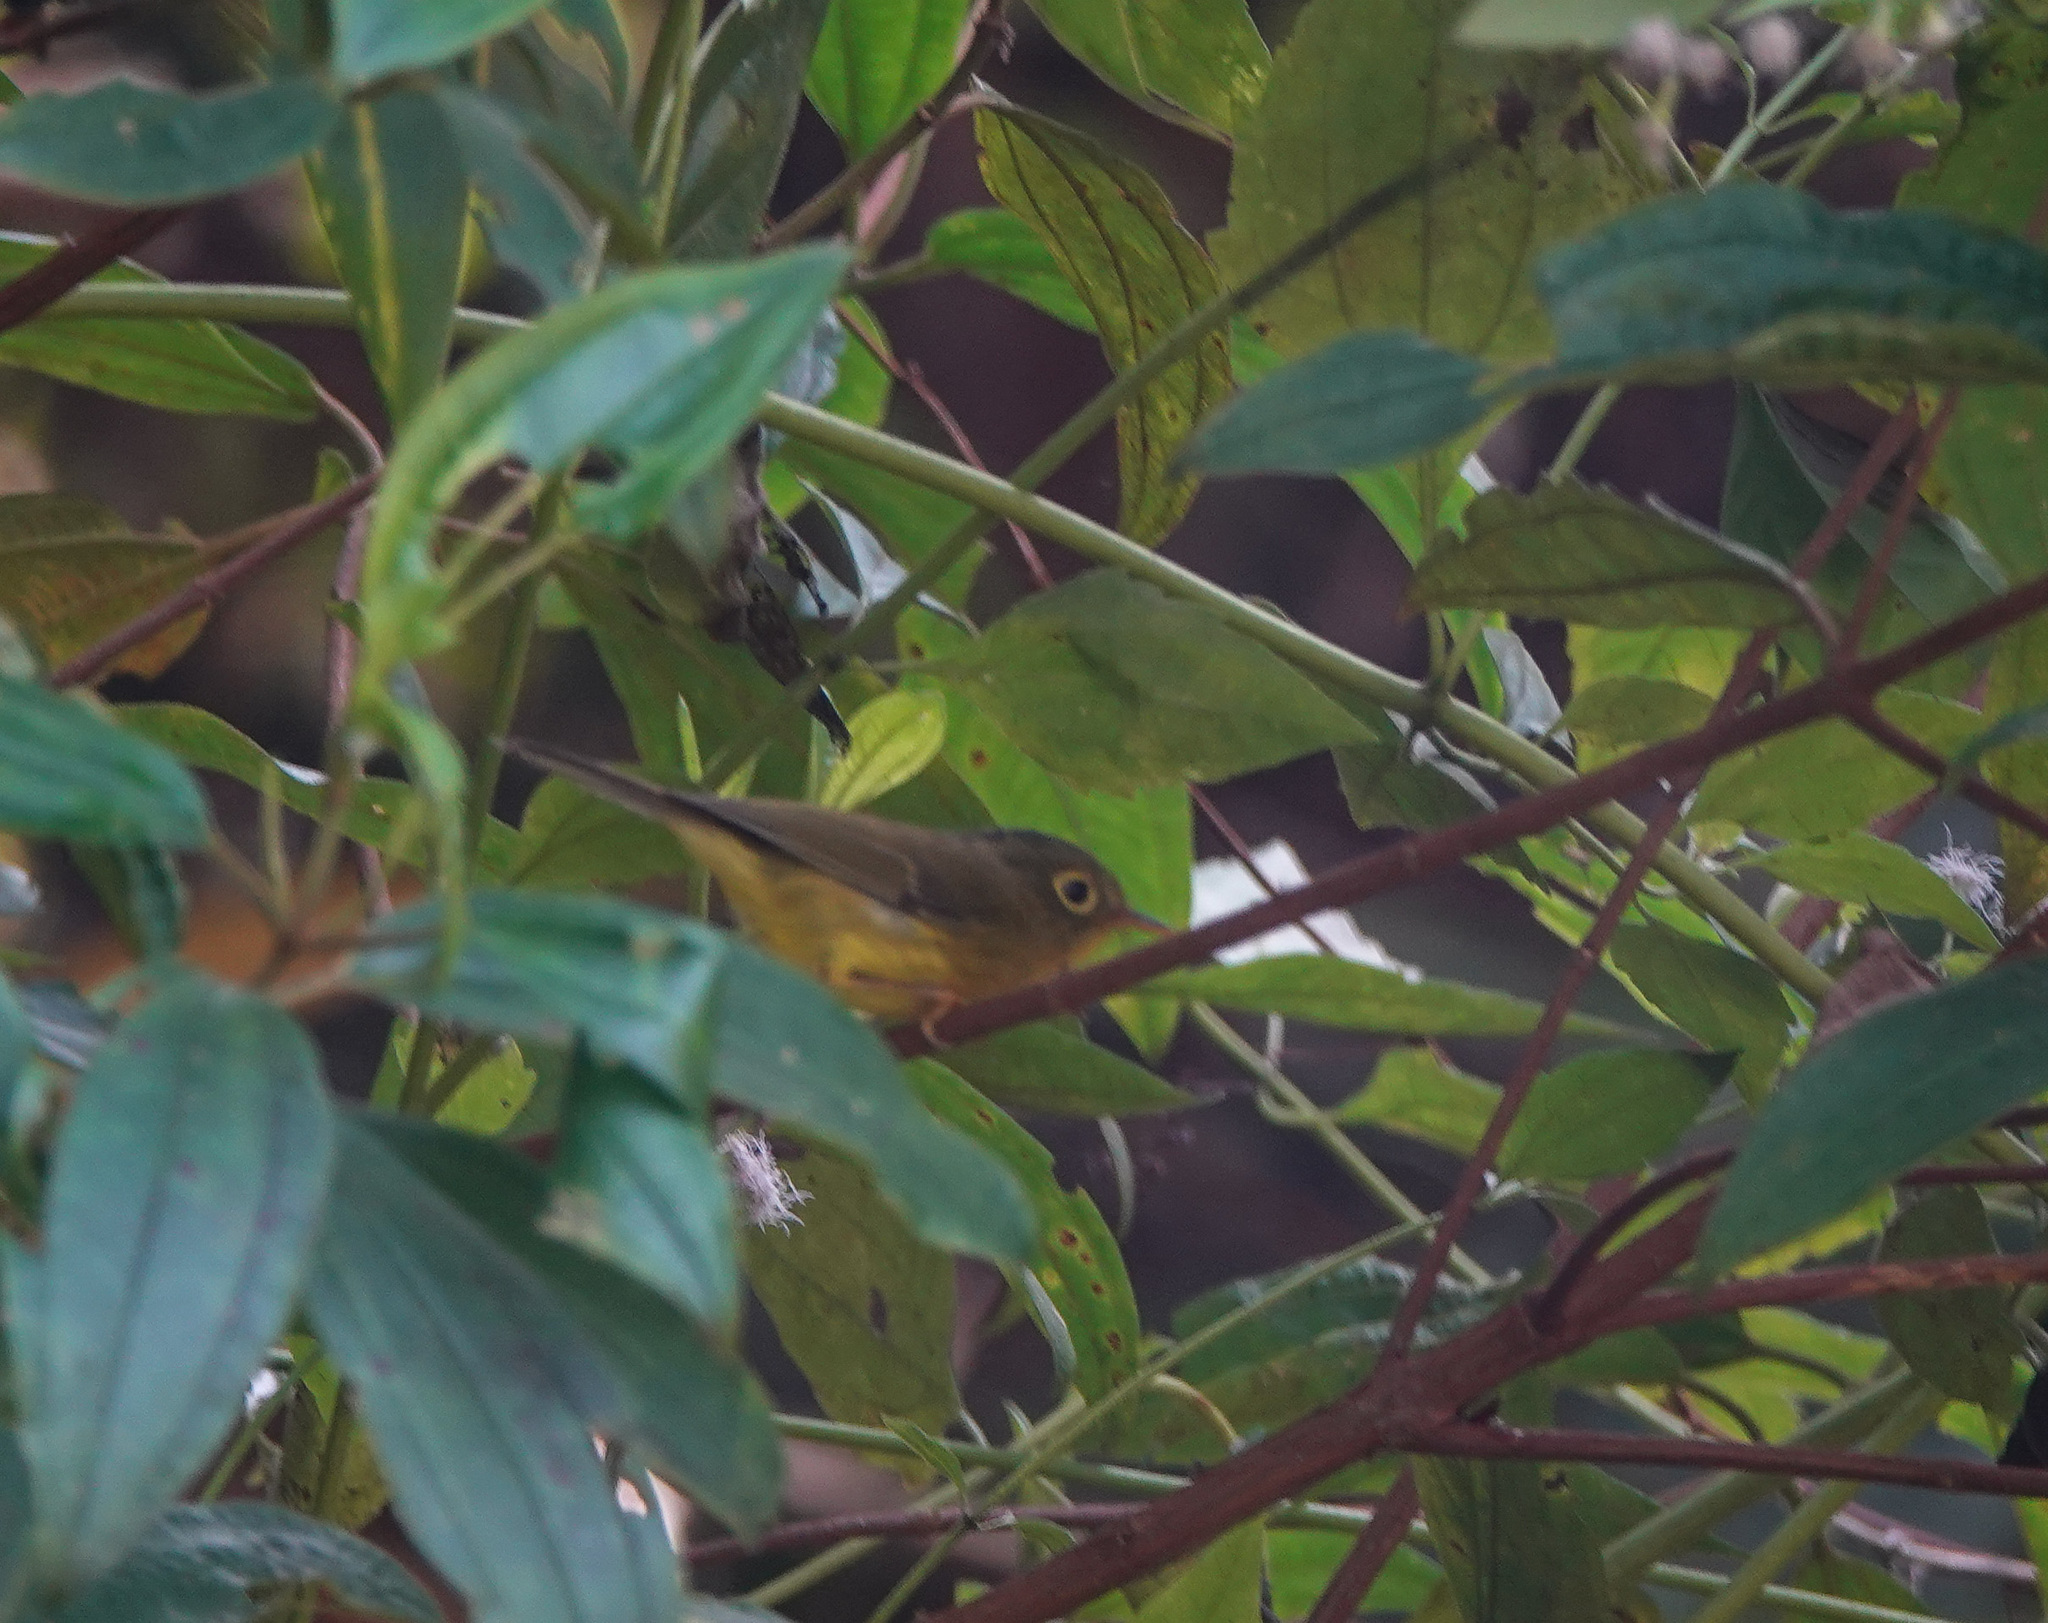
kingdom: Animalia
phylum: Chordata
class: Aves
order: Passeriformes
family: Phylloscopidae
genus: Seicercus
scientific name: Seicercus whistleri
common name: Whistler's warbler
